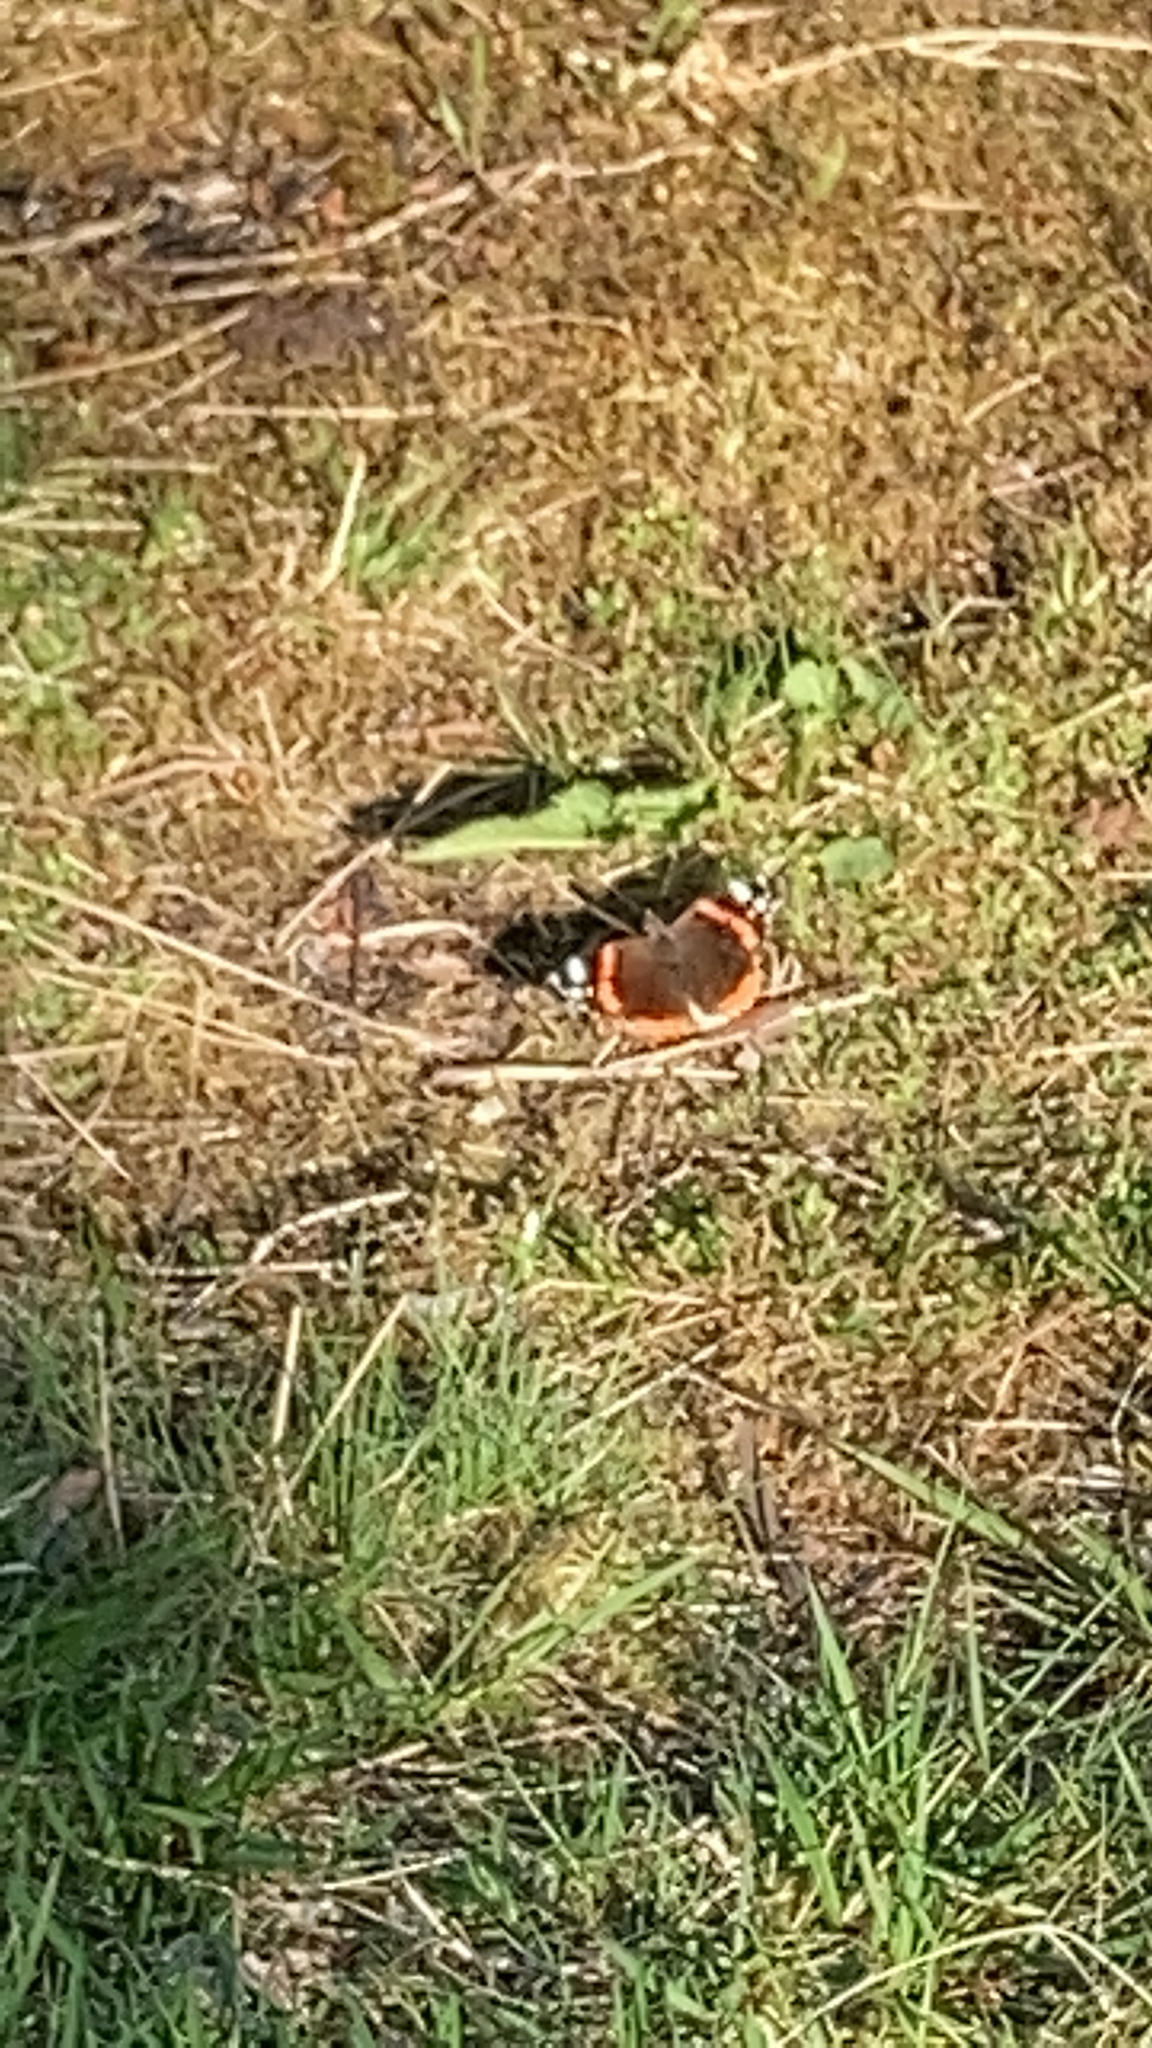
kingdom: Animalia
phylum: Arthropoda
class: Insecta
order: Lepidoptera
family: Nymphalidae
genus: Vanessa
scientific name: Vanessa atalanta
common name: Red admiral
